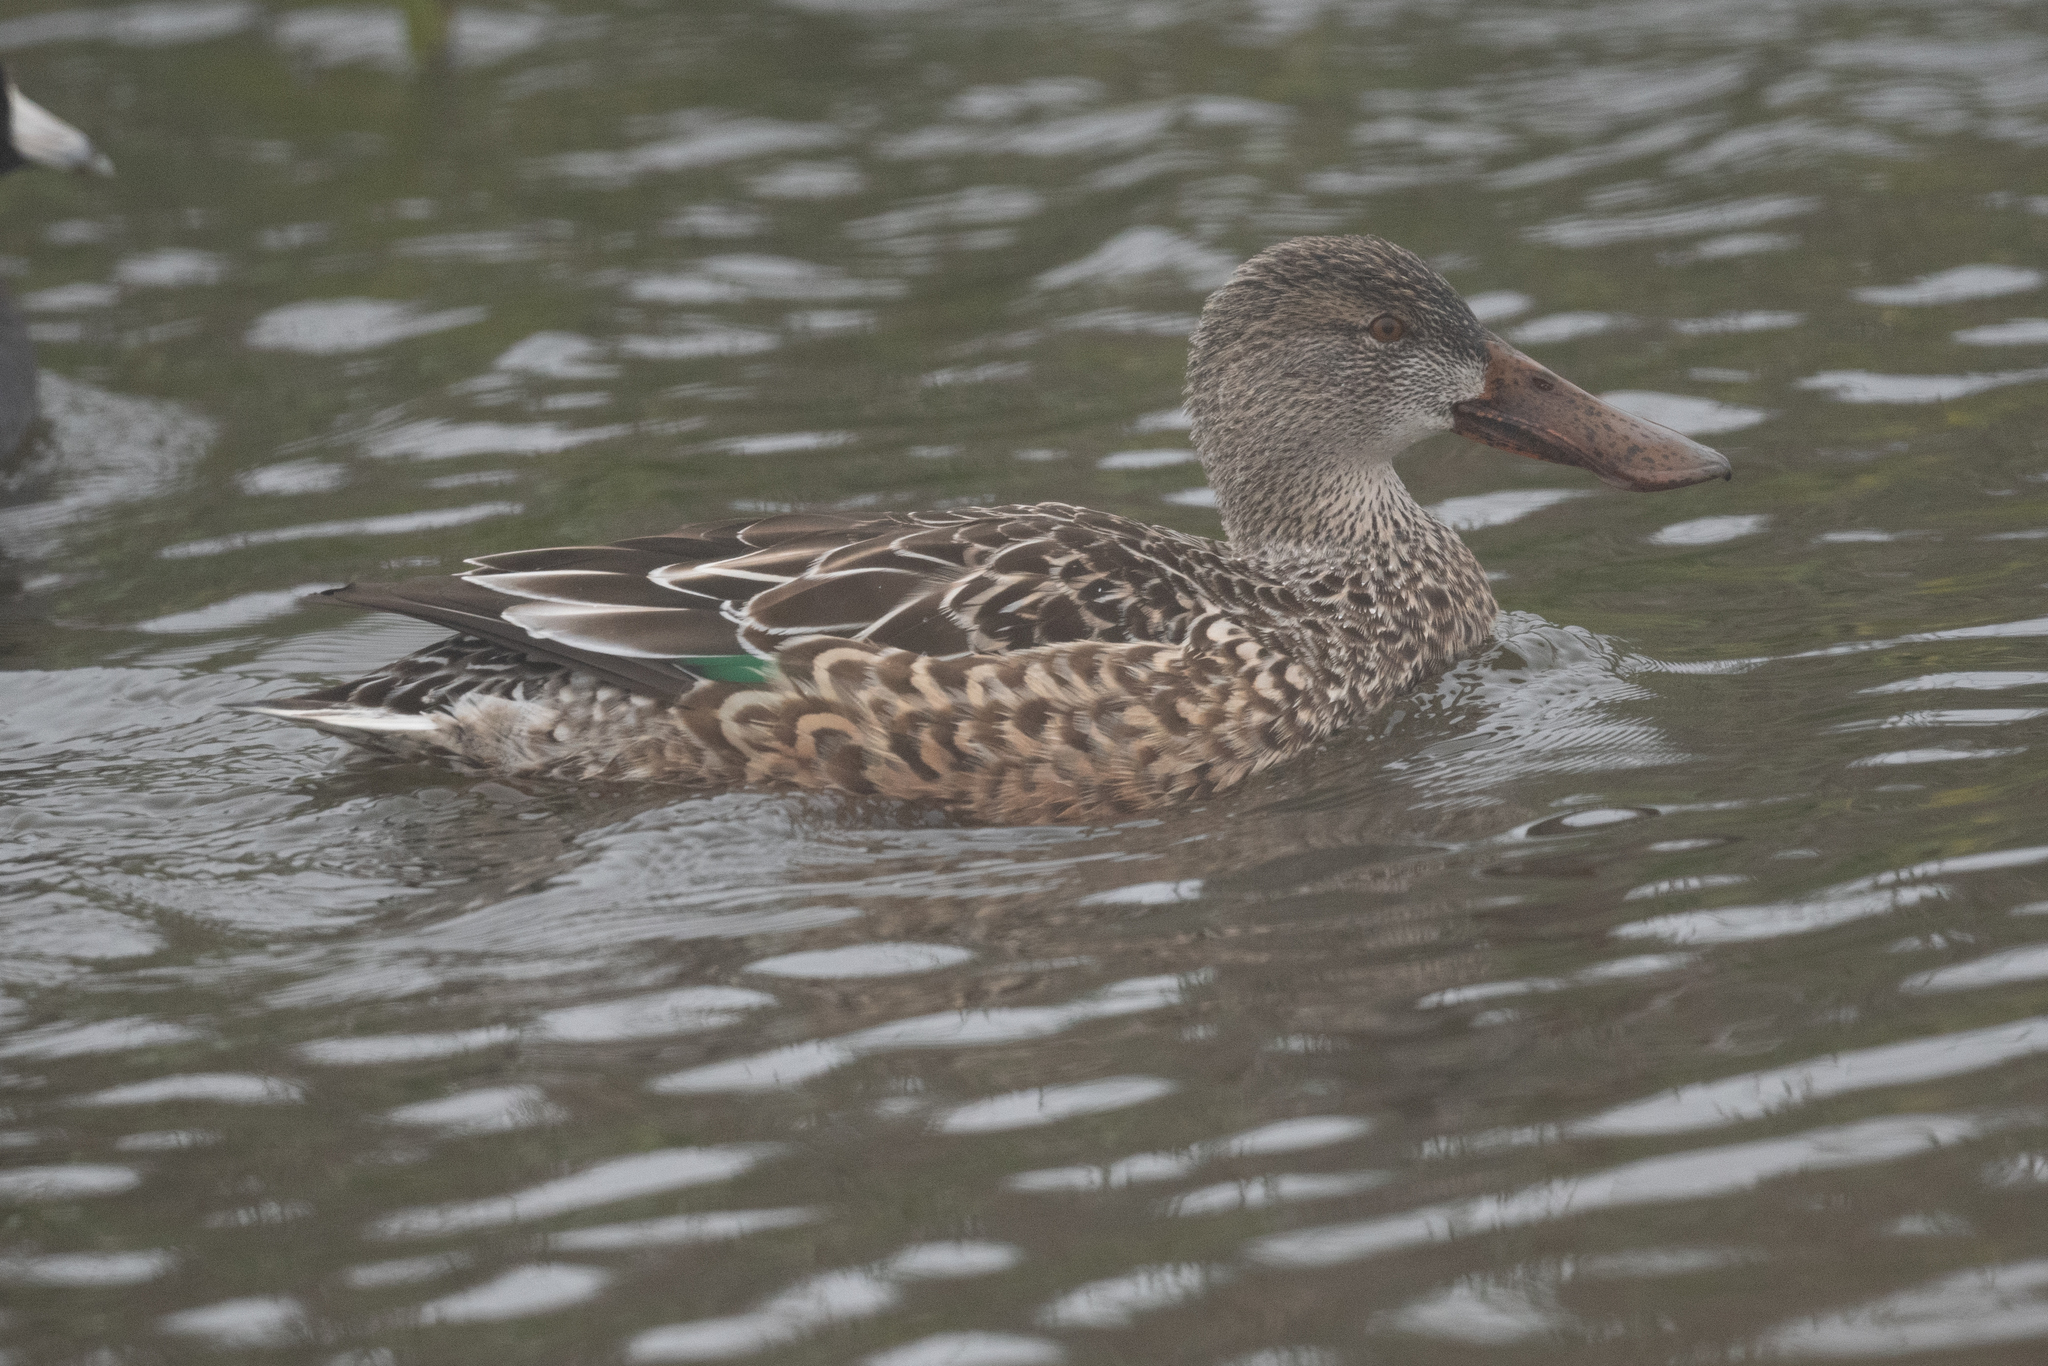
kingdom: Animalia
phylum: Chordata
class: Aves
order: Anseriformes
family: Anatidae
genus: Spatula
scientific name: Spatula clypeata
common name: Northern shoveler
